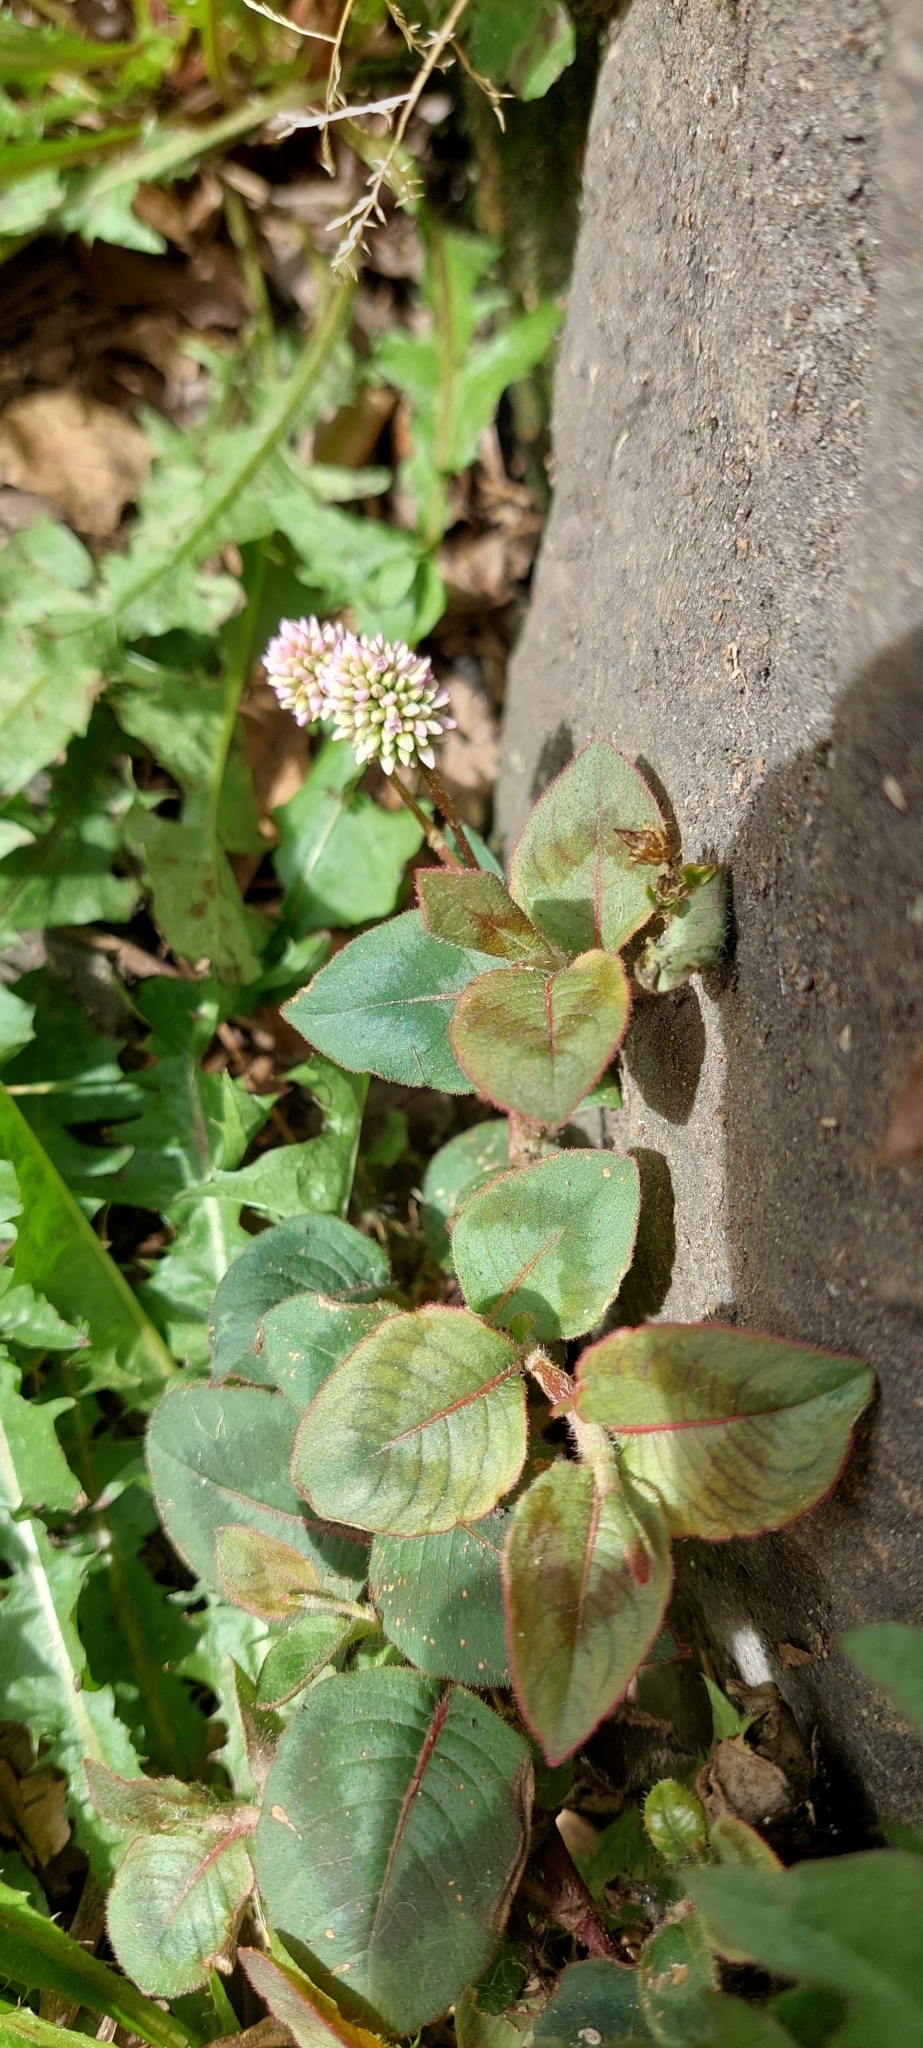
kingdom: Plantae
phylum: Tracheophyta
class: Magnoliopsida
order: Caryophyllales
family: Polygonaceae
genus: Persicaria
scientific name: Persicaria capitata
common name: Pinkhead smartweed
